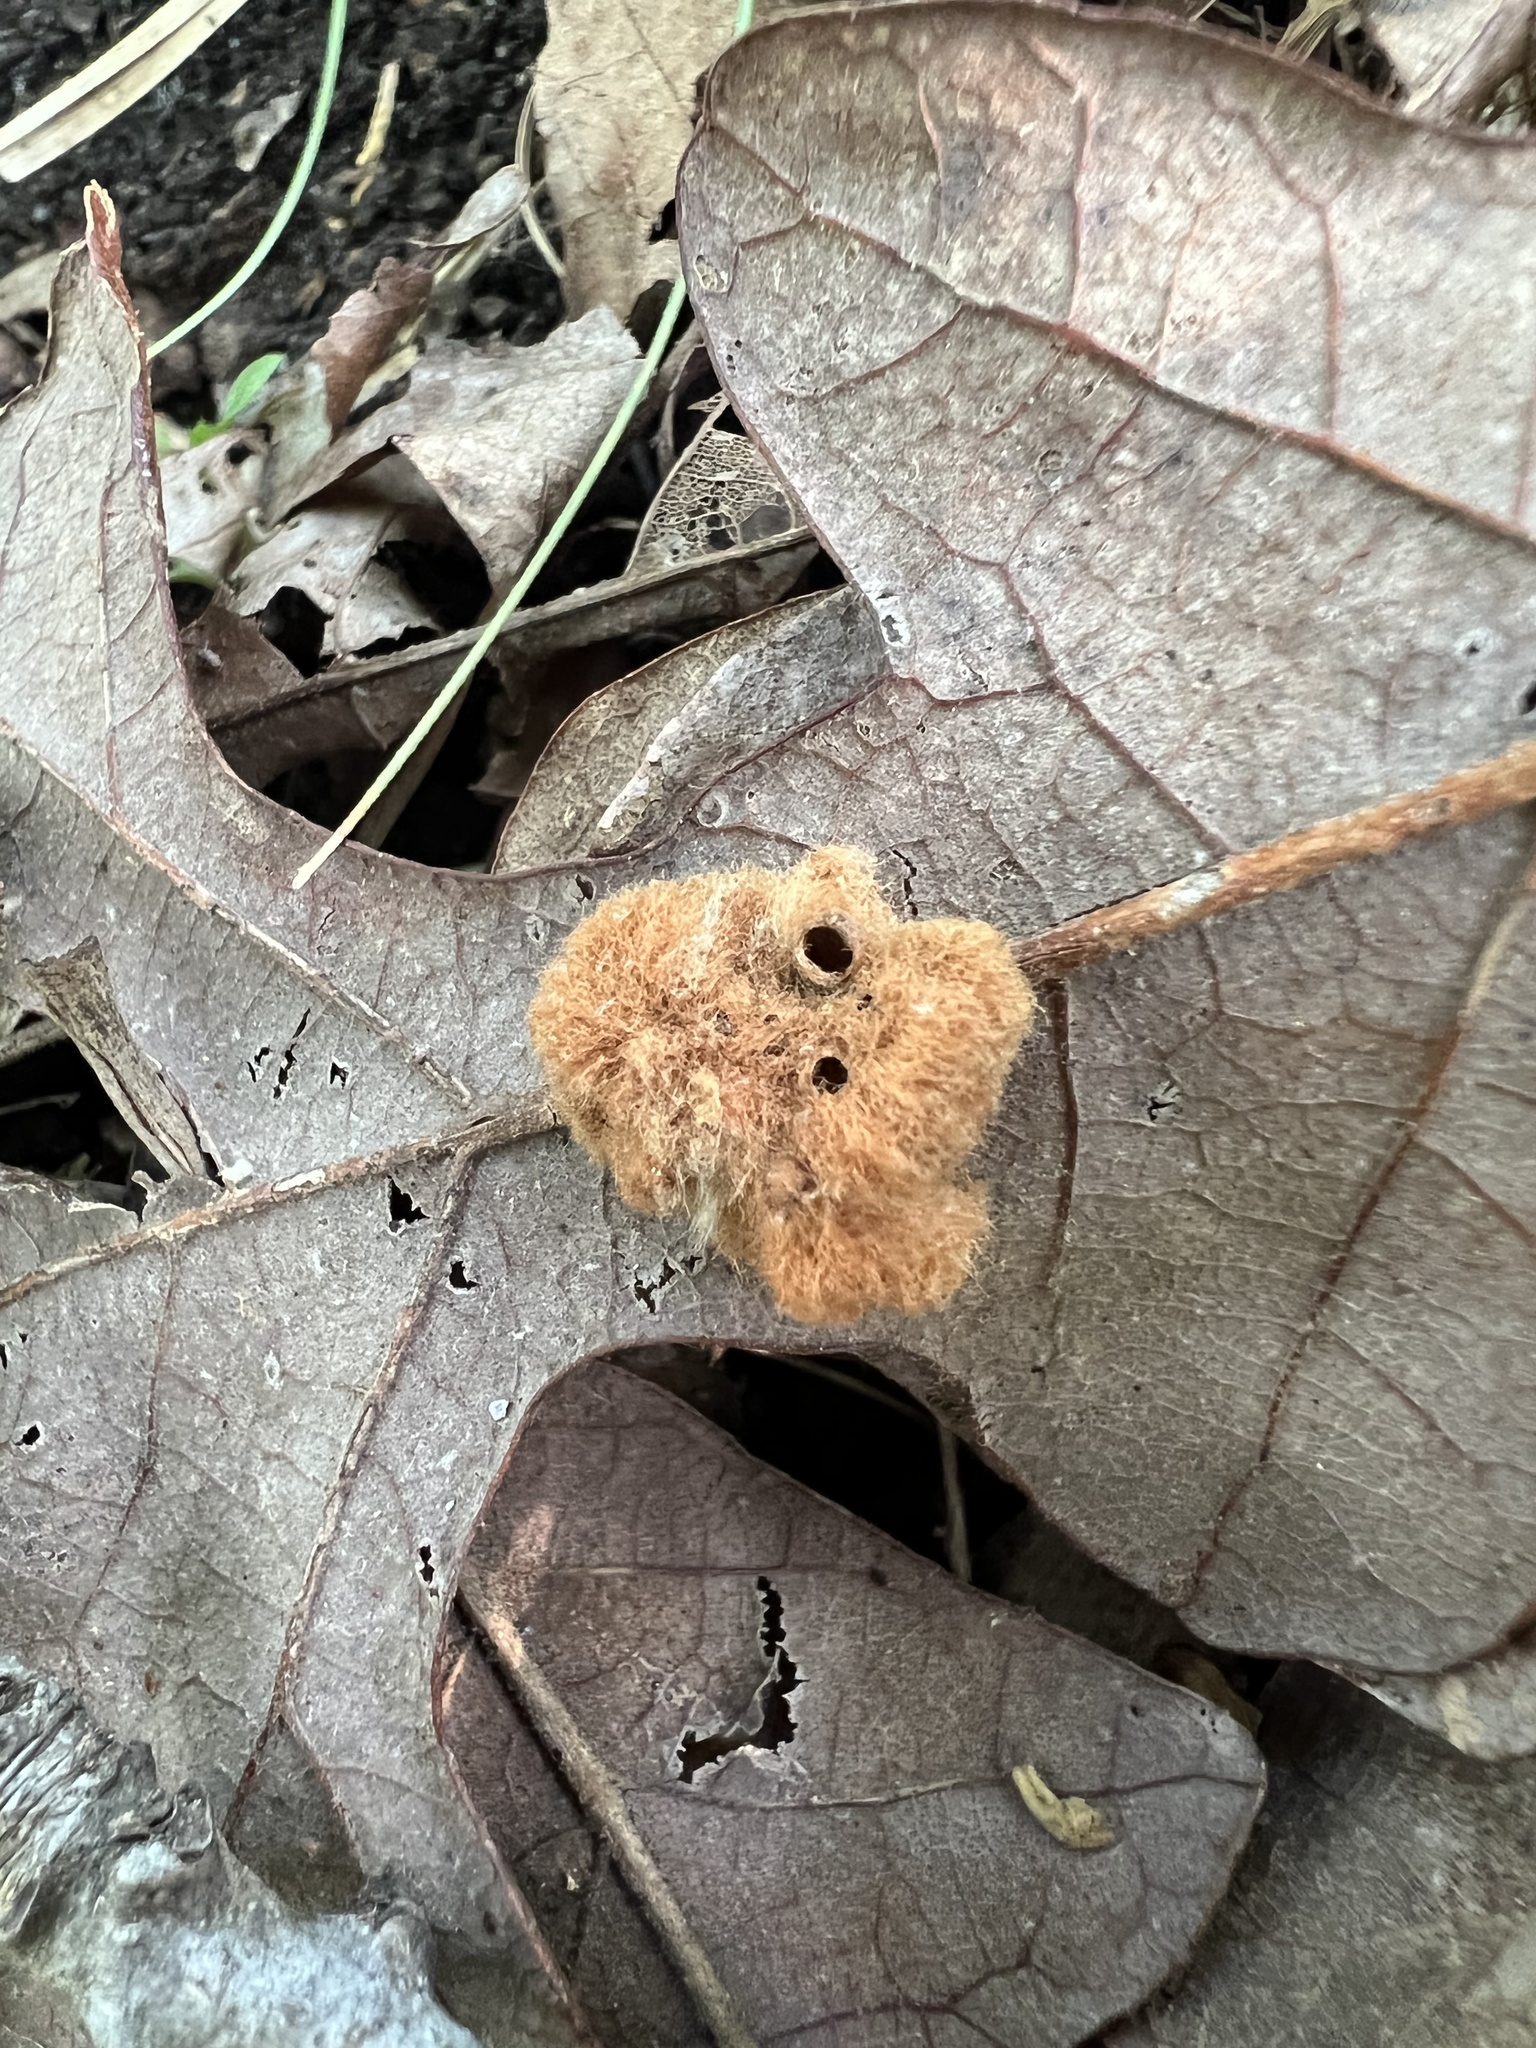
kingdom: Animalia
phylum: Arthropoda
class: Insecta
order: Hymenoptera
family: Cynipidae
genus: Andricus
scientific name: Andricus Druon pattoni
